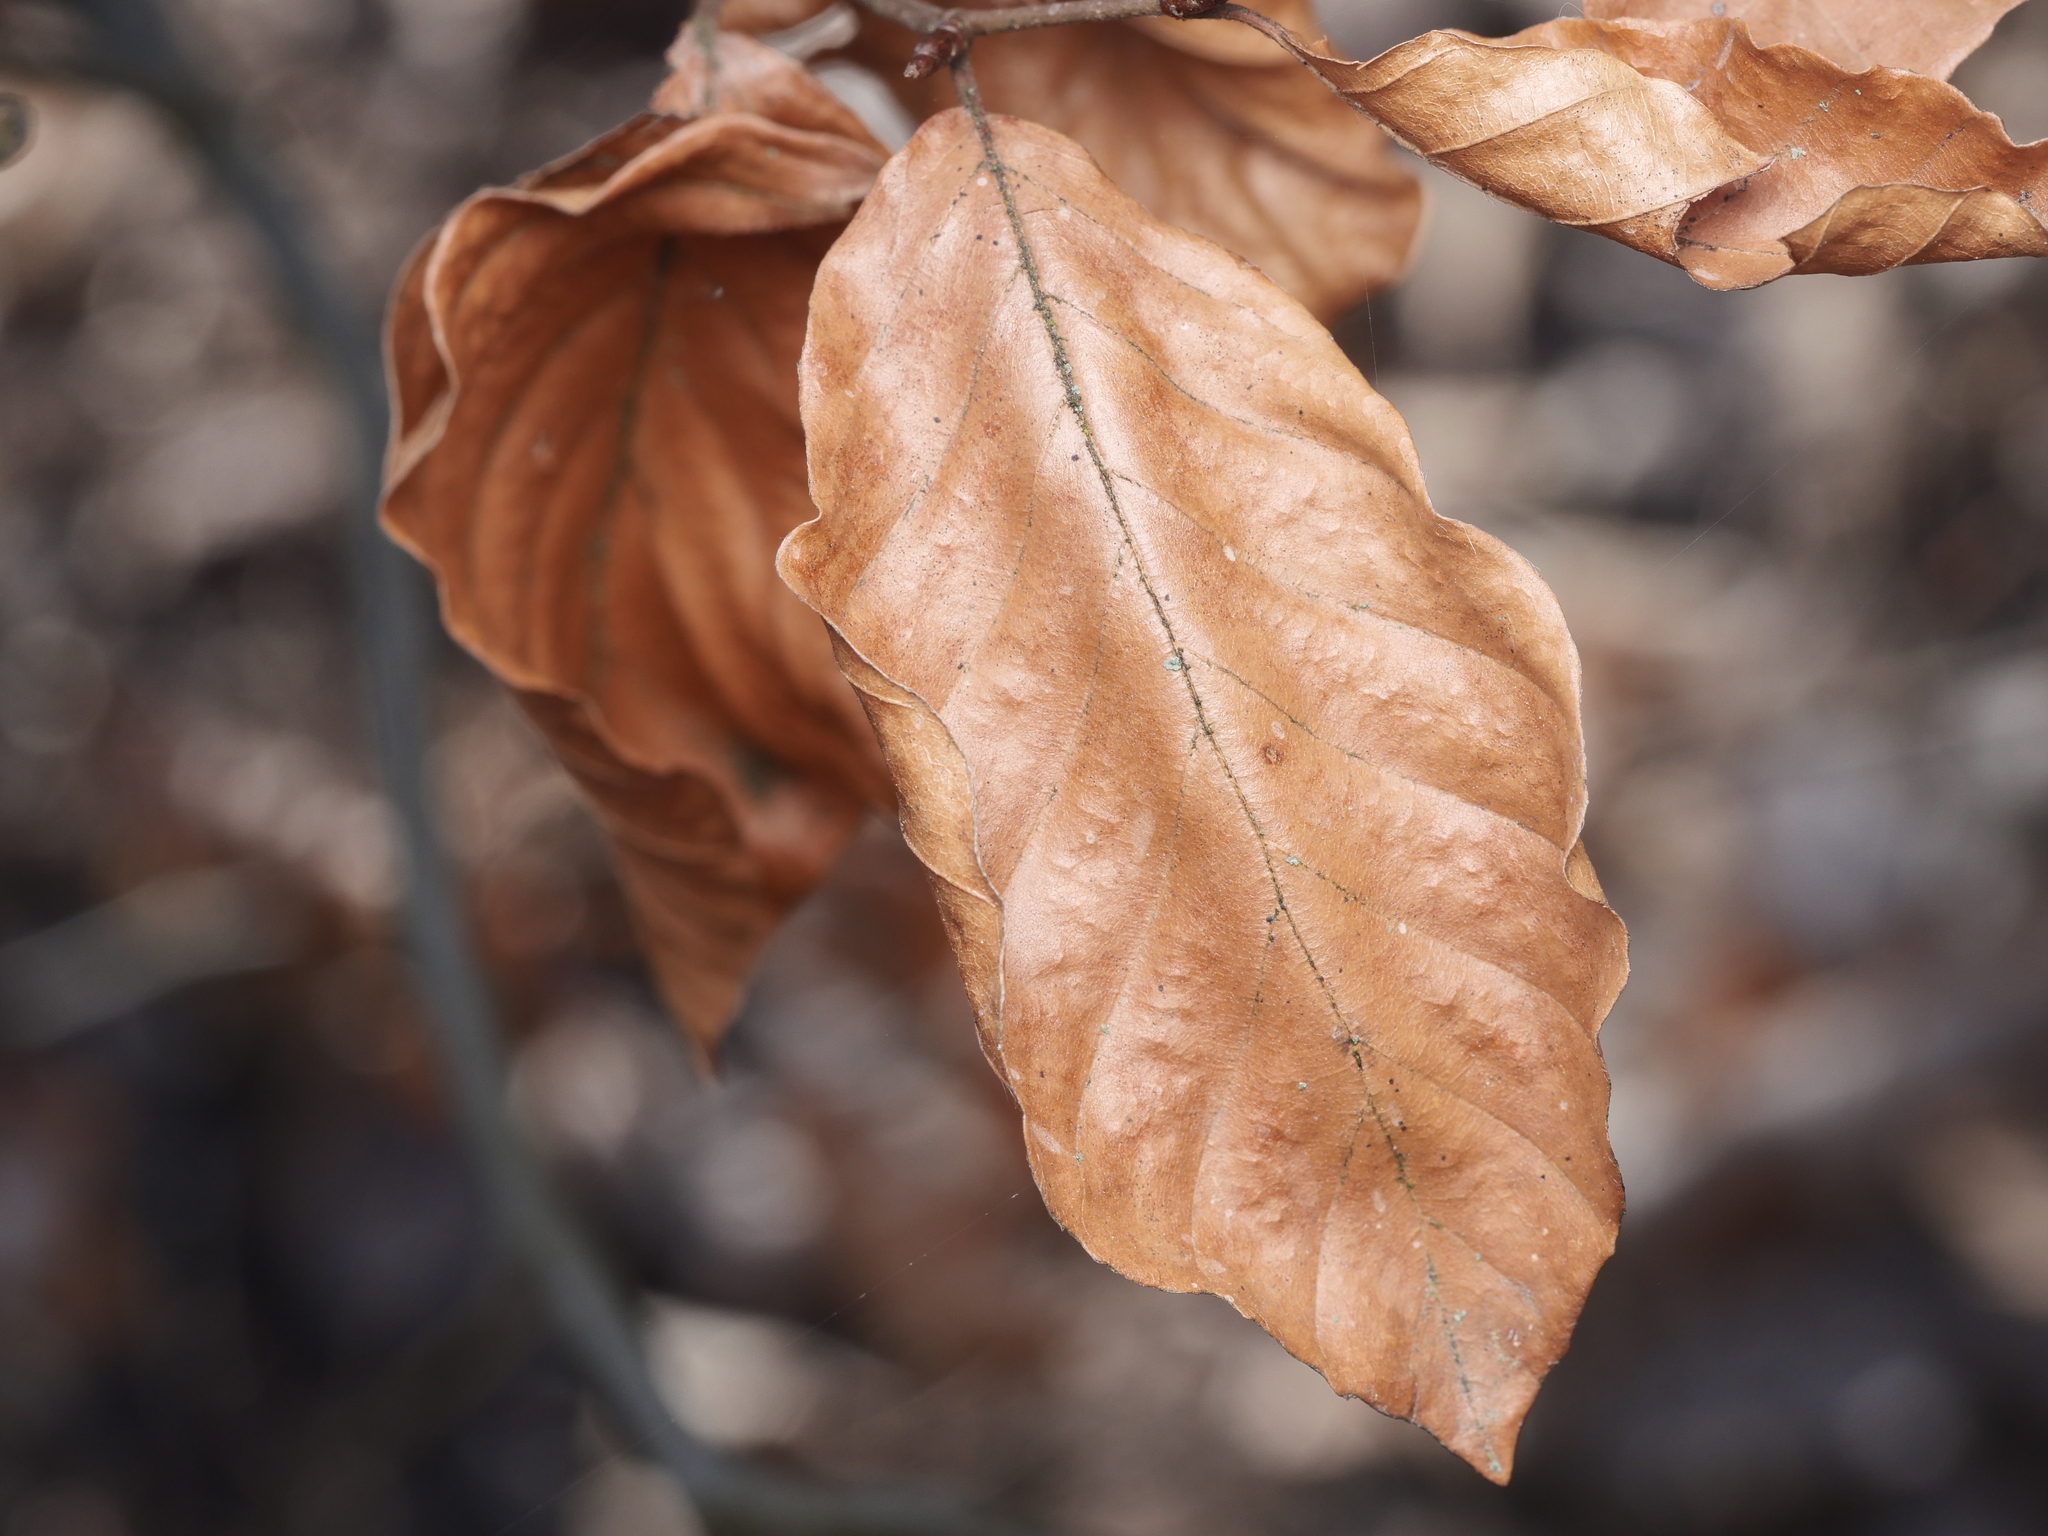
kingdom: Plantae
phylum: Tracheophyta
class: Magnoliopsida
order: Fagales
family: Fagaceae
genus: Fagus
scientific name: Fagus sylvatica
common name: Beech
